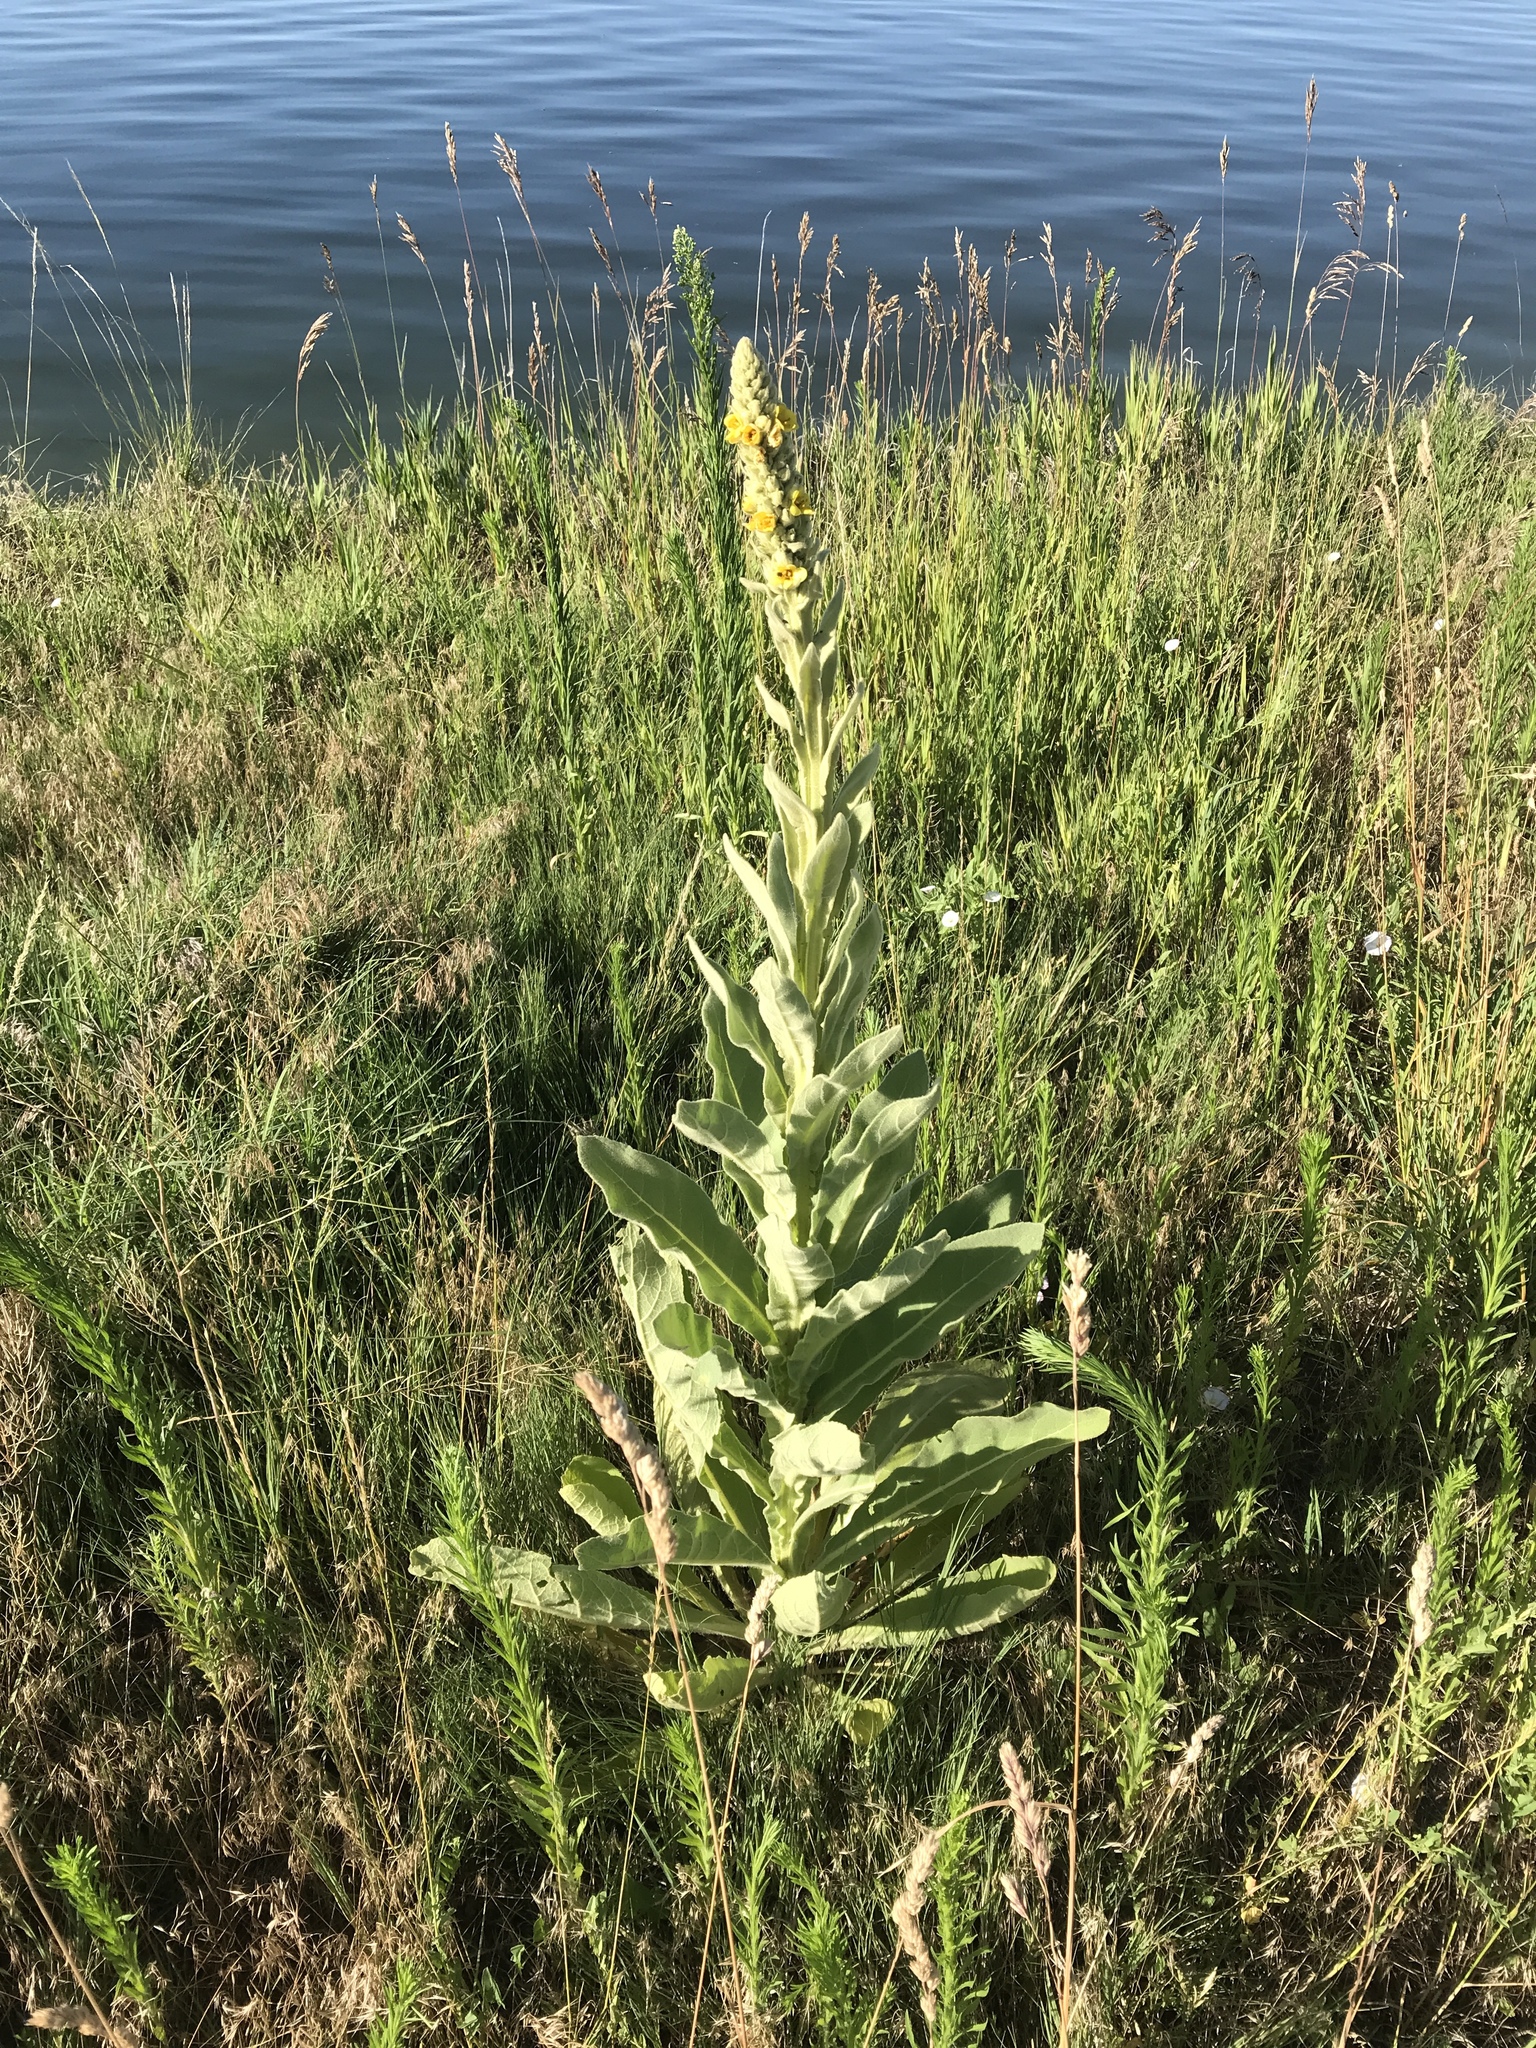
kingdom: Plantae
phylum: Tracheophyta
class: Magnoliopsida
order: Lamiales
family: Scrophulariaceae
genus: Verbascum
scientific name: Verbascum thapsus
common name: Common mullein
